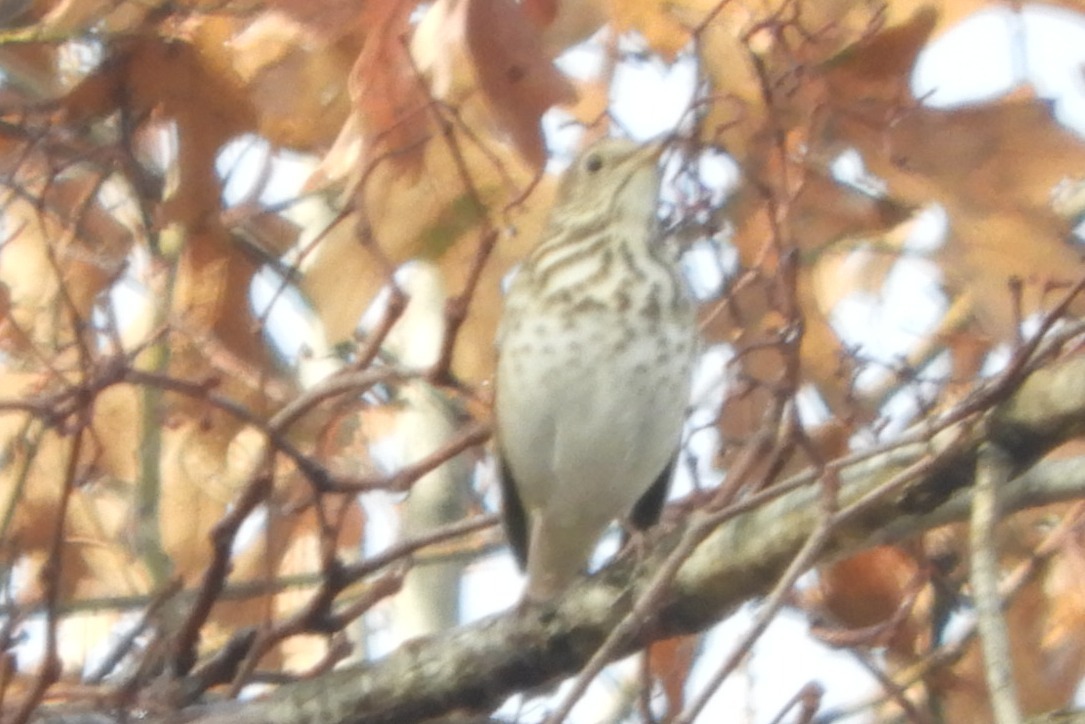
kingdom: Animalia
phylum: Chordata
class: Aves
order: Passeriformes
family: Turdidae
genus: Catharus
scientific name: Catharus guttatus
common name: Hermit thrush
